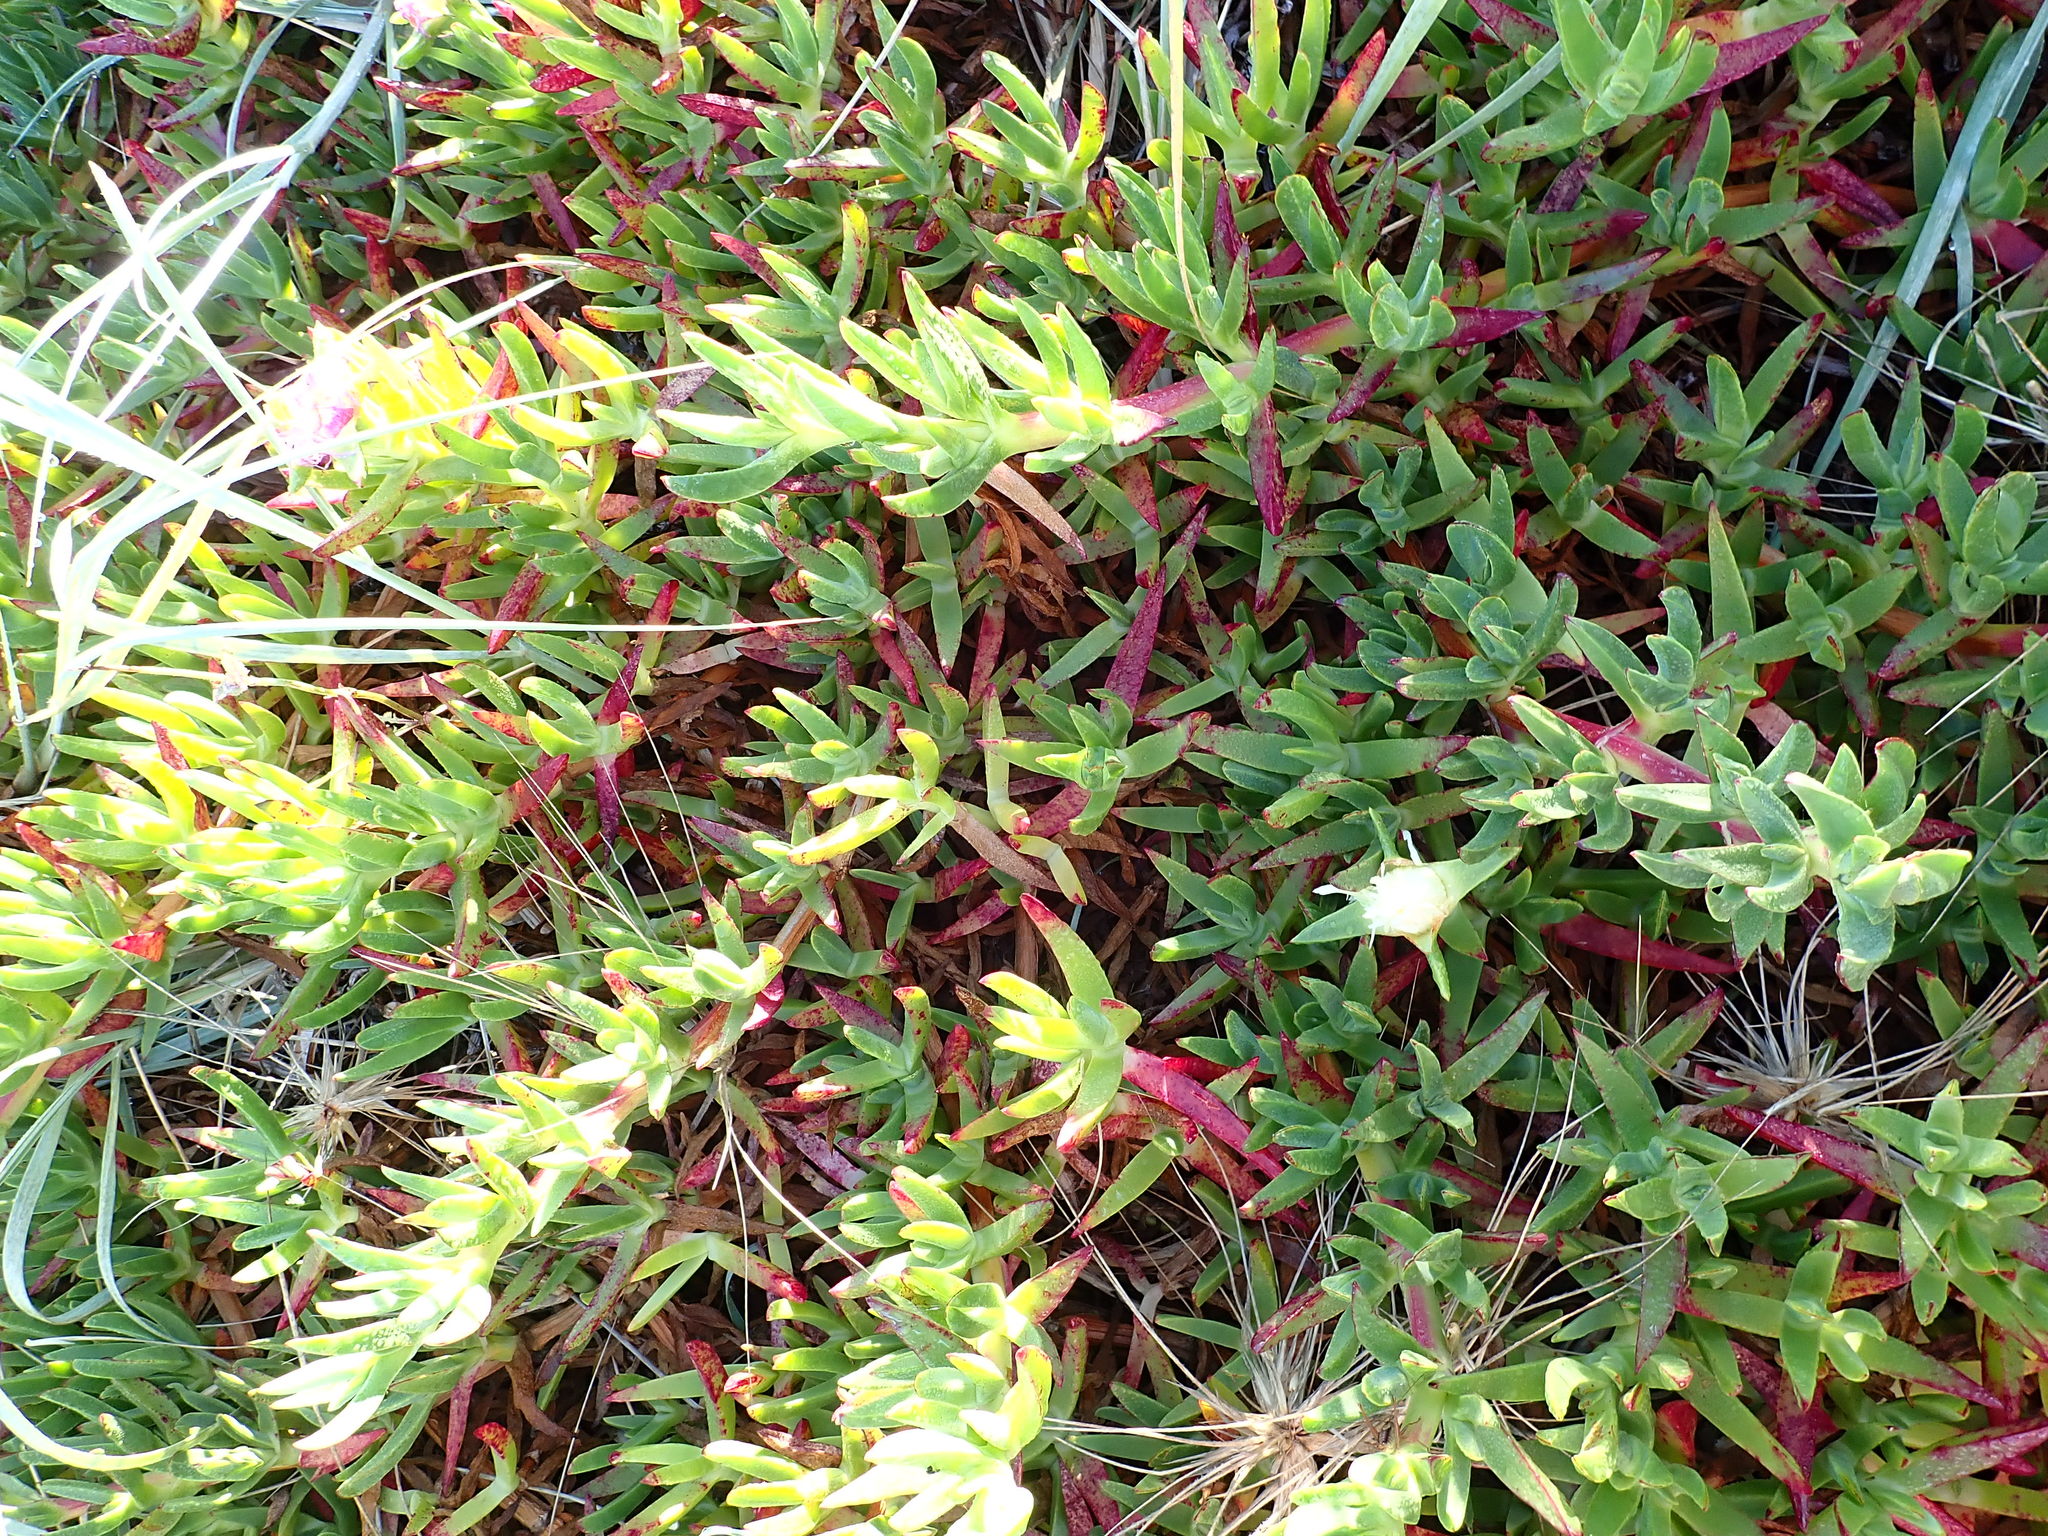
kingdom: Plantae
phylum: Tracheophyta
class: Magnoliopsida
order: Caryophyllales
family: Aizoaceae
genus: Carpobrotus
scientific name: Carpobrotus edulis
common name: Hottentot-fig
